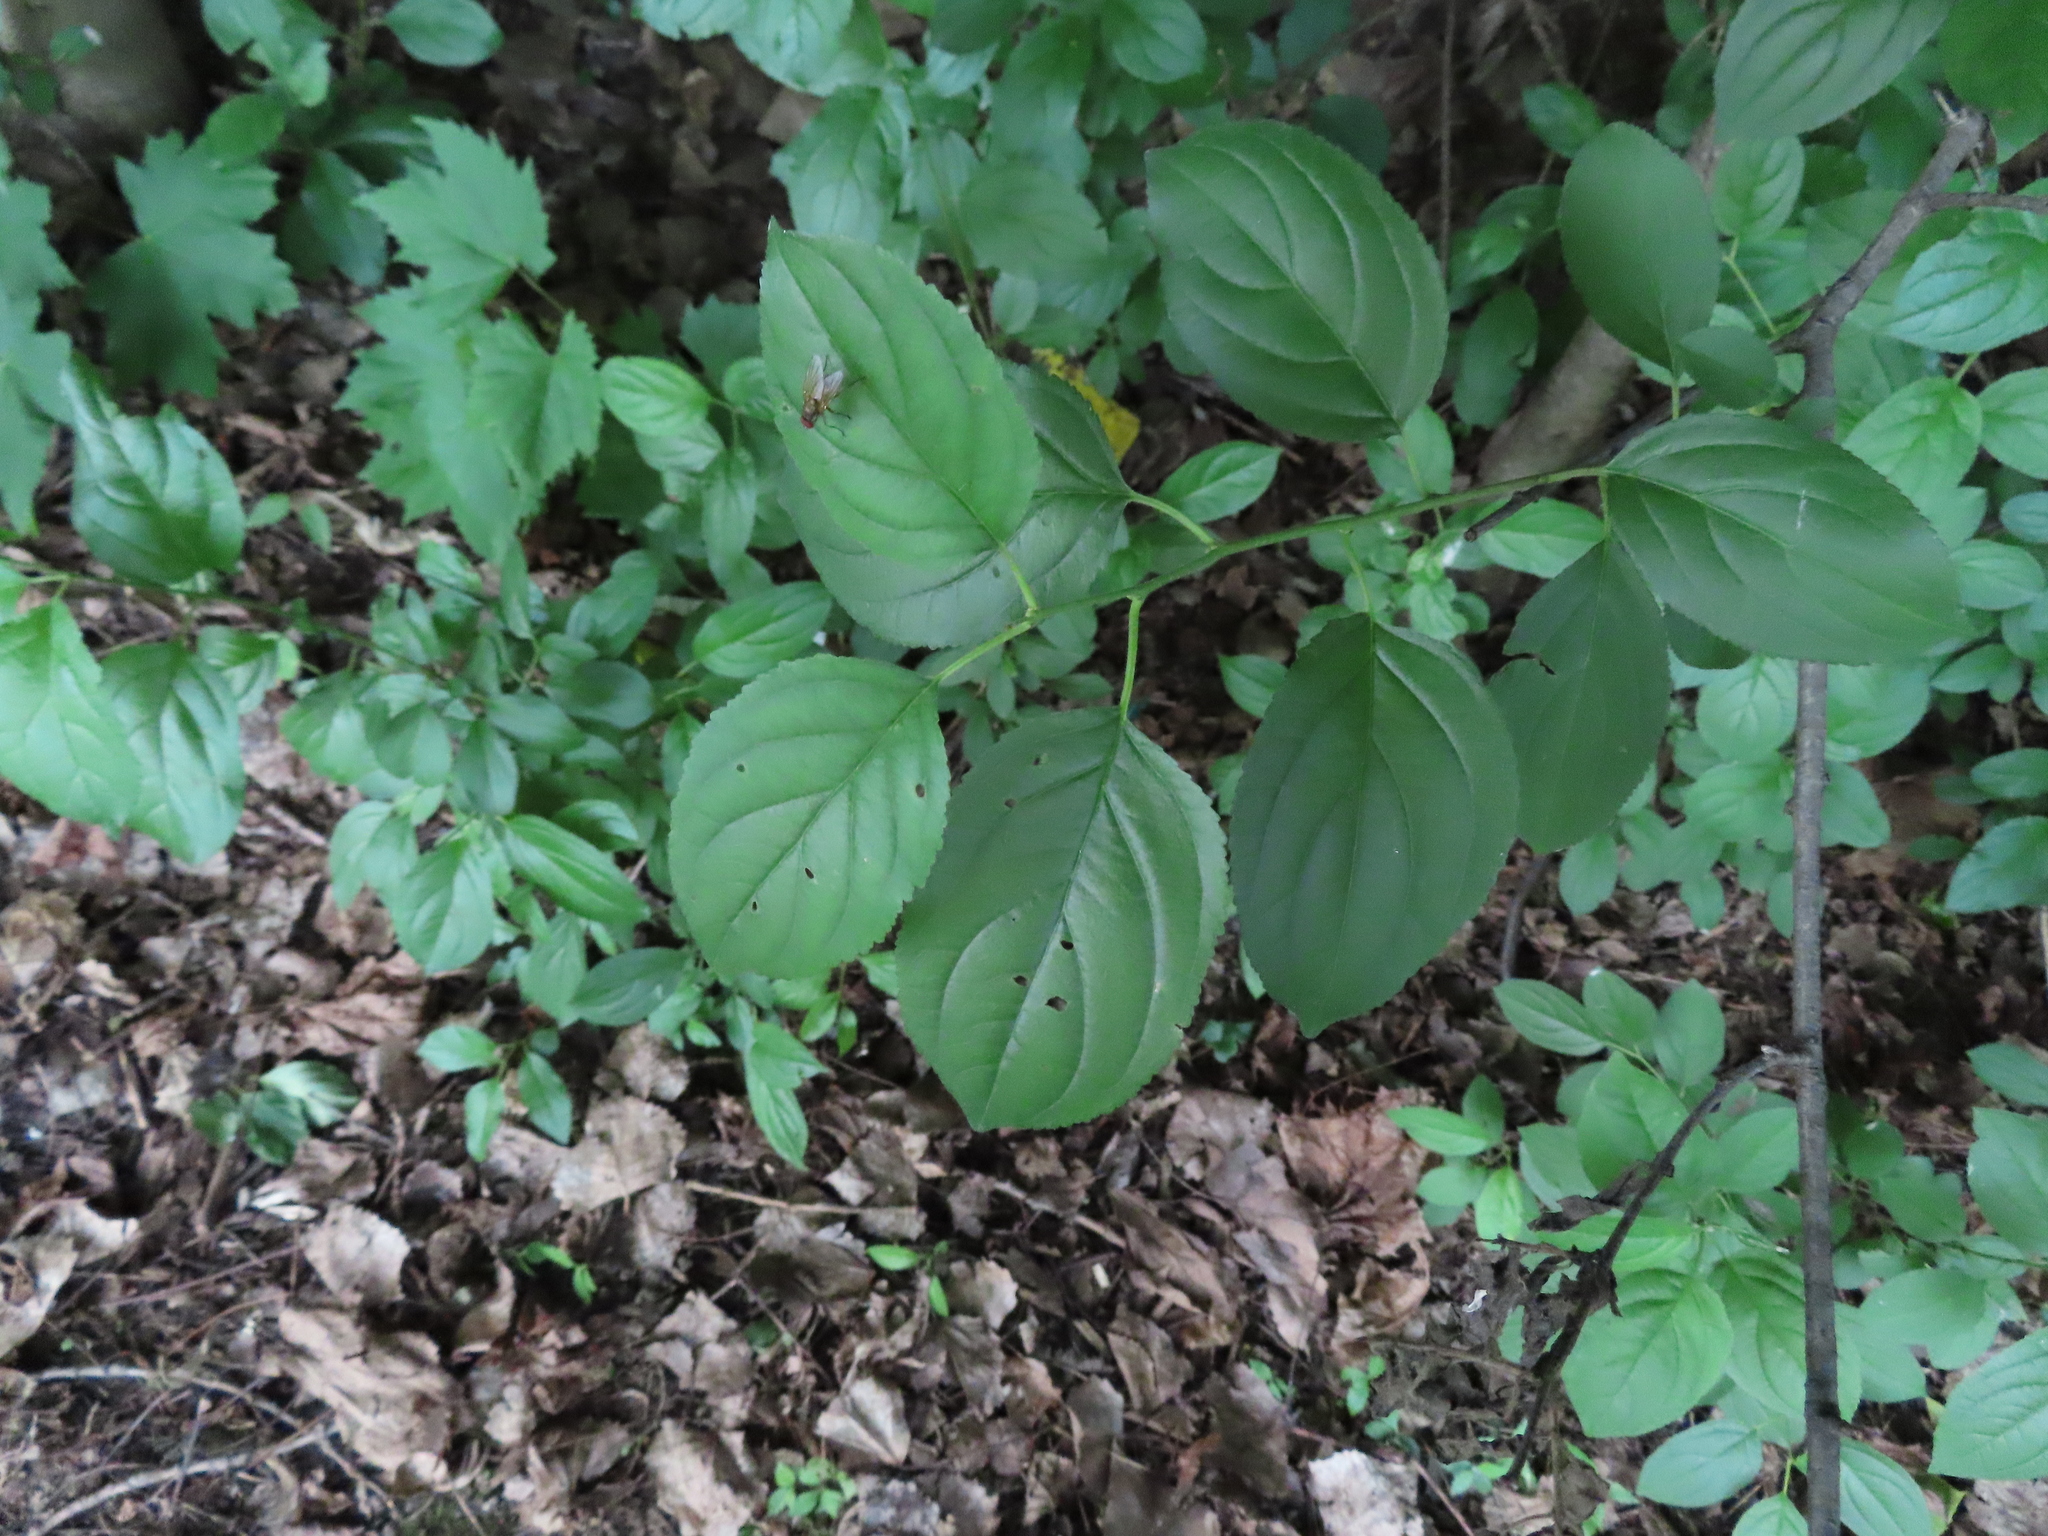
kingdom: Plantae
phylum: Tracheophyta
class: Magnoliopsida
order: Rosales
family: Rhamnaceae
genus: Rhamnus
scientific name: Rhamnus cathartica
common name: Common buckthorn
